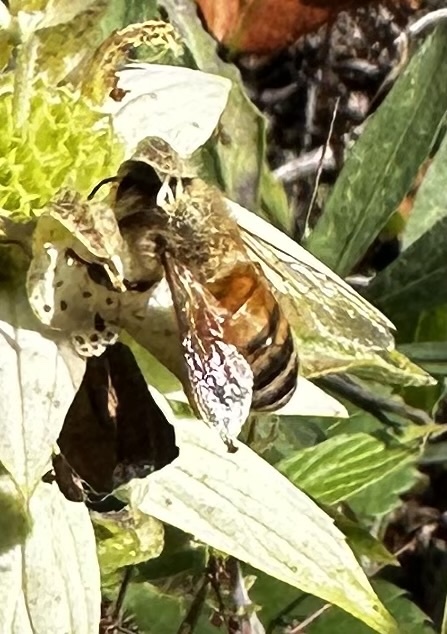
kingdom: Animalia
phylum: Arthropoda
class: Insecta
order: Hymenoptera
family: Apidae
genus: Apis
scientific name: Apis mellifera
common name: Honey bee
